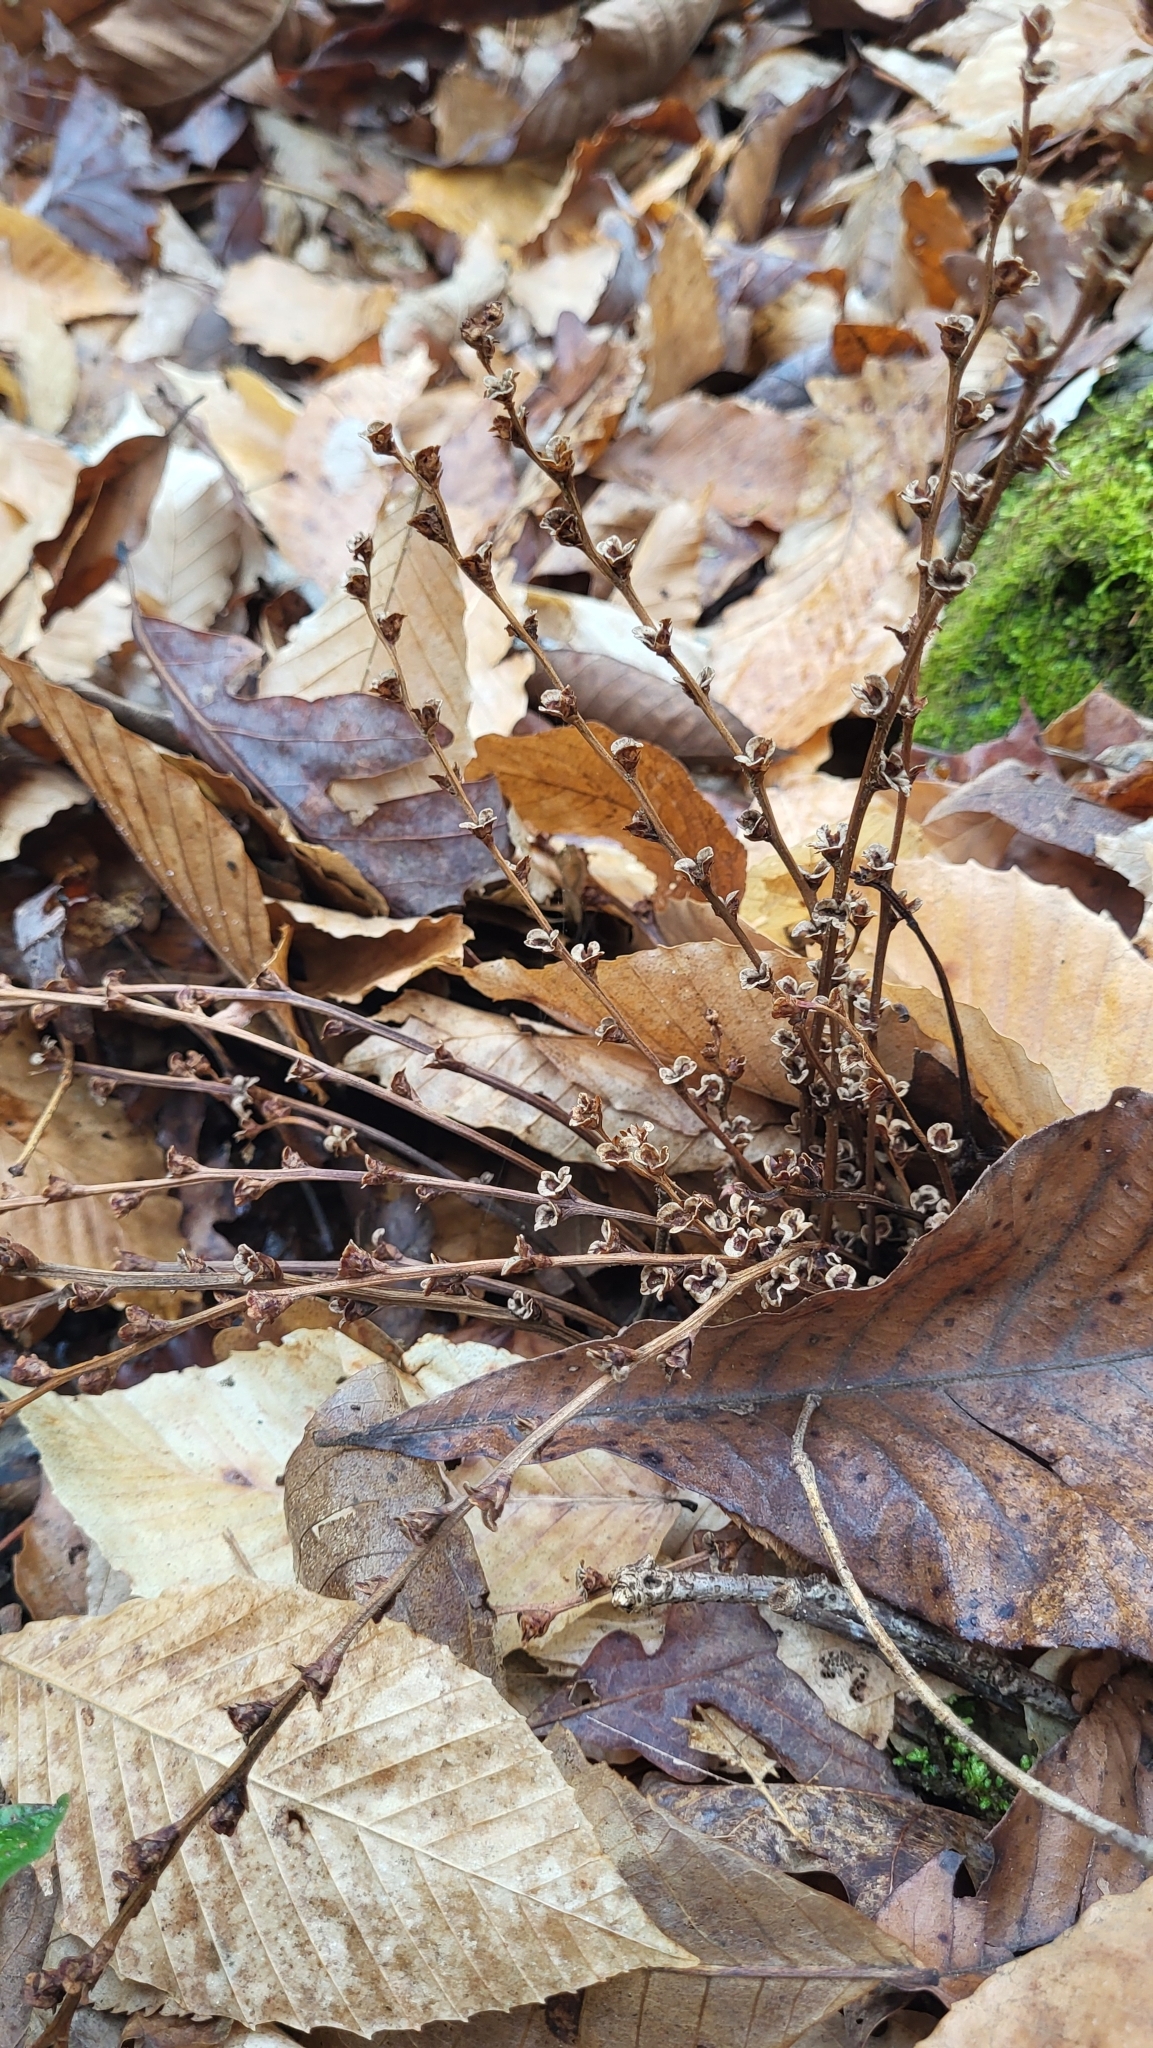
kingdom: Plantae
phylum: Tracheophyta
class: Magnoliopsida
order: Lamiales
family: Orobanchaceae
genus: Epifagus
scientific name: Epifagus virginiana
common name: Beechdrops
